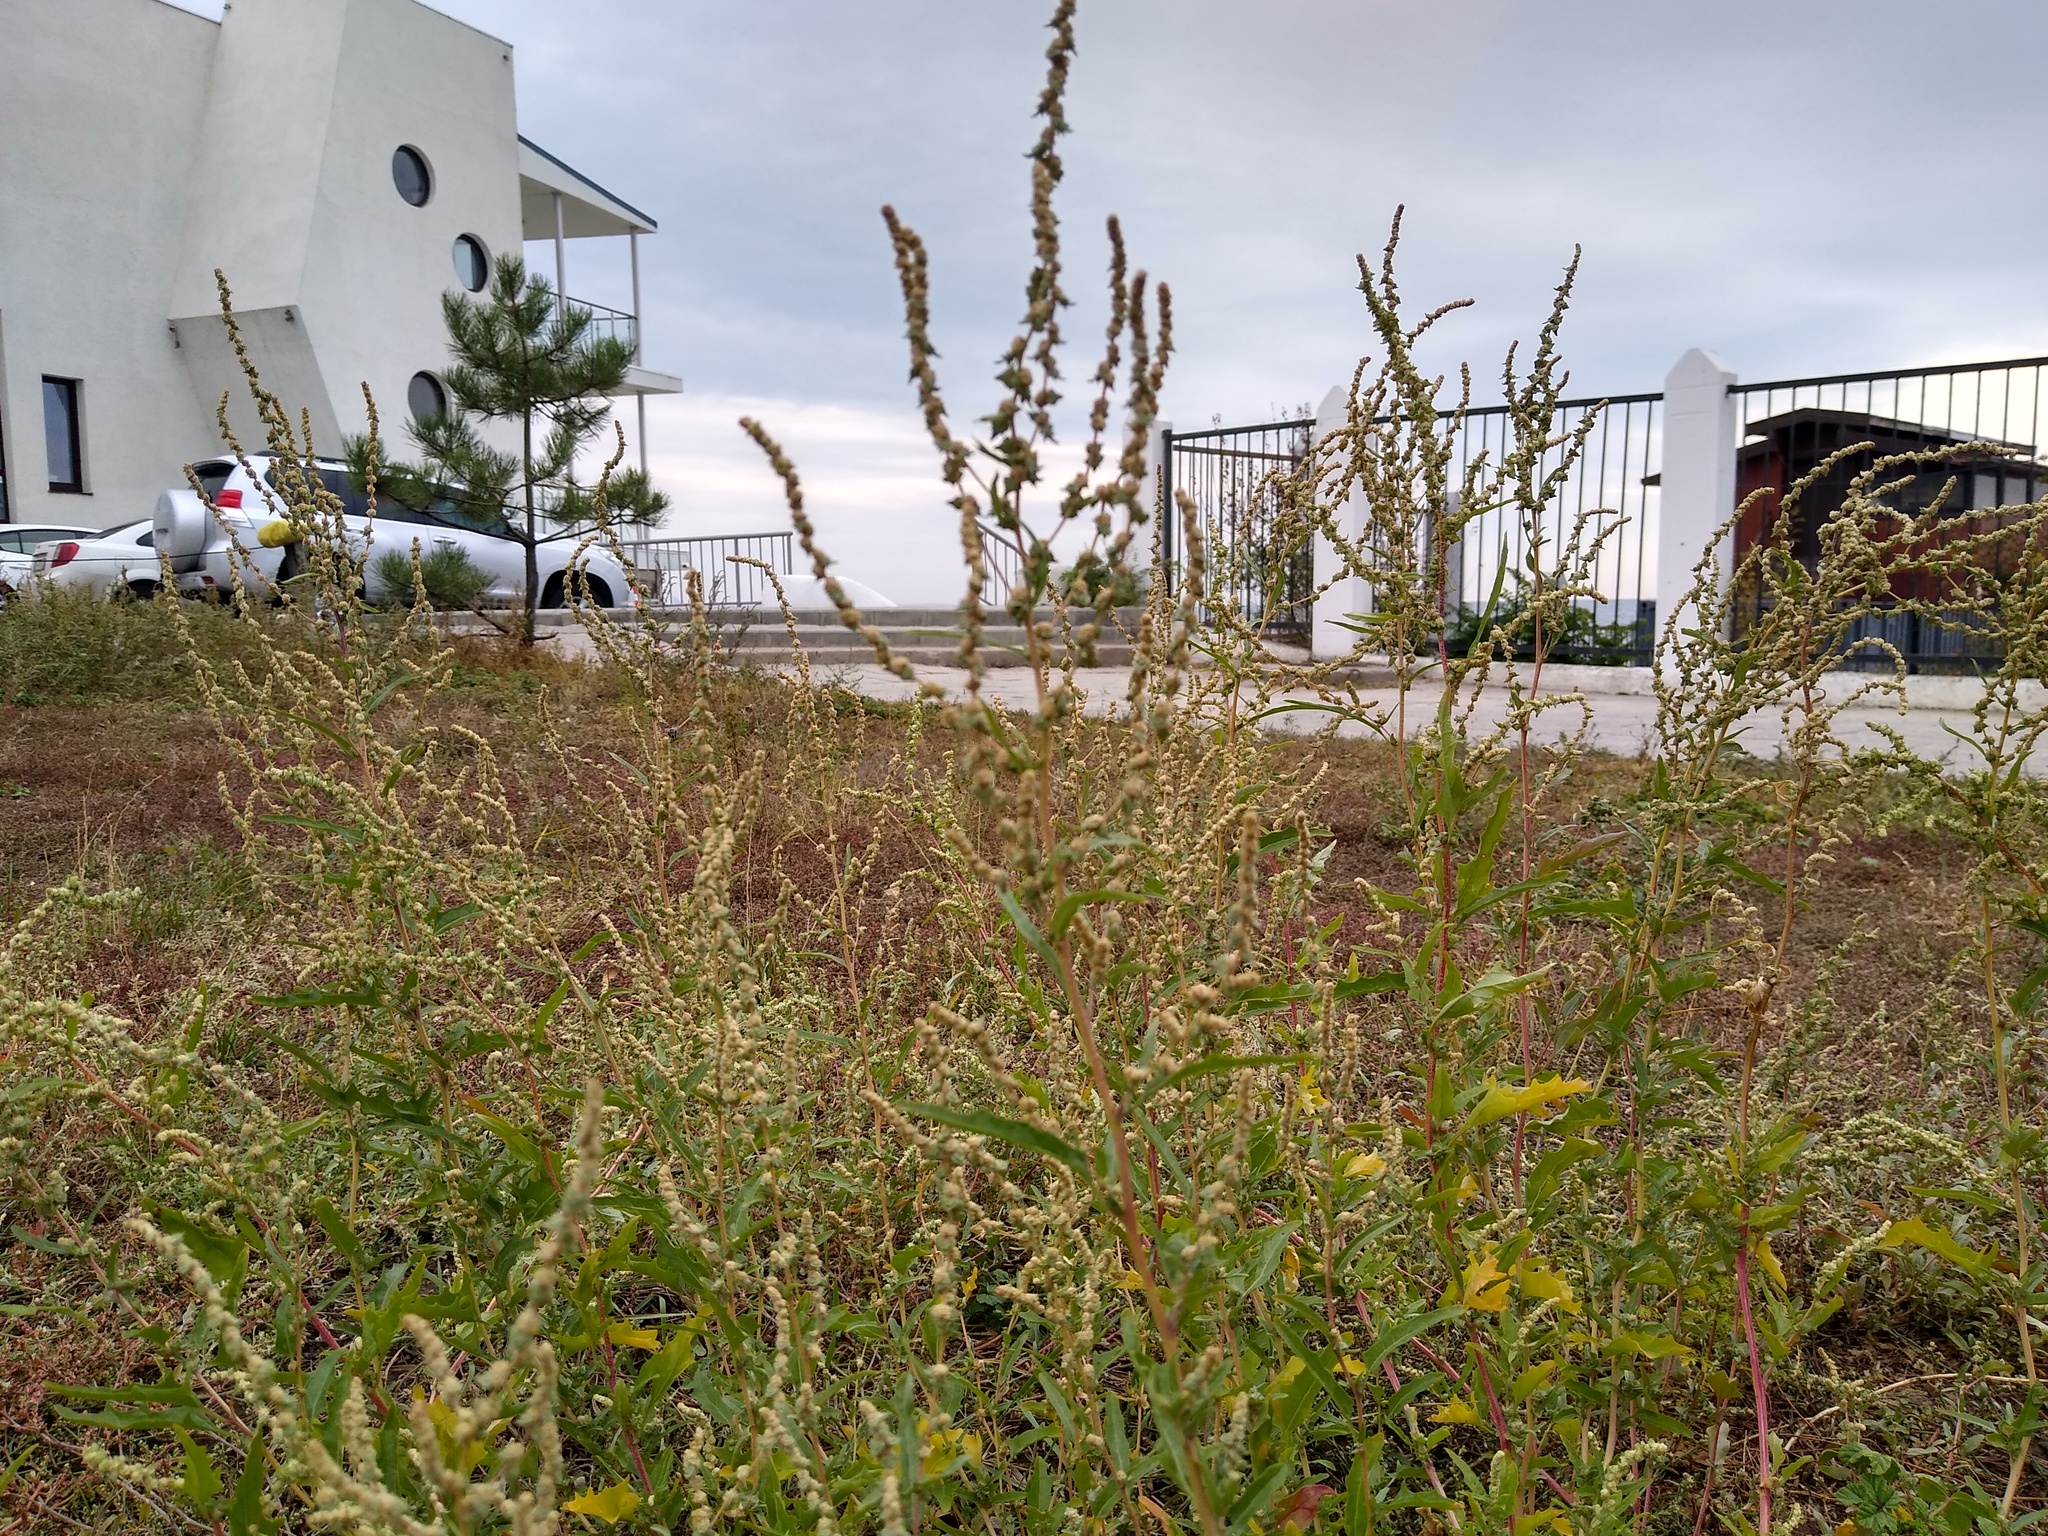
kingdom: Plantae
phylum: Tracheophyta
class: Magnoliopsida
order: Caryophyllales
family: Amaranthaceae
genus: Atriplex
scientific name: Atriplex tatarica
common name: Tatarian orache
